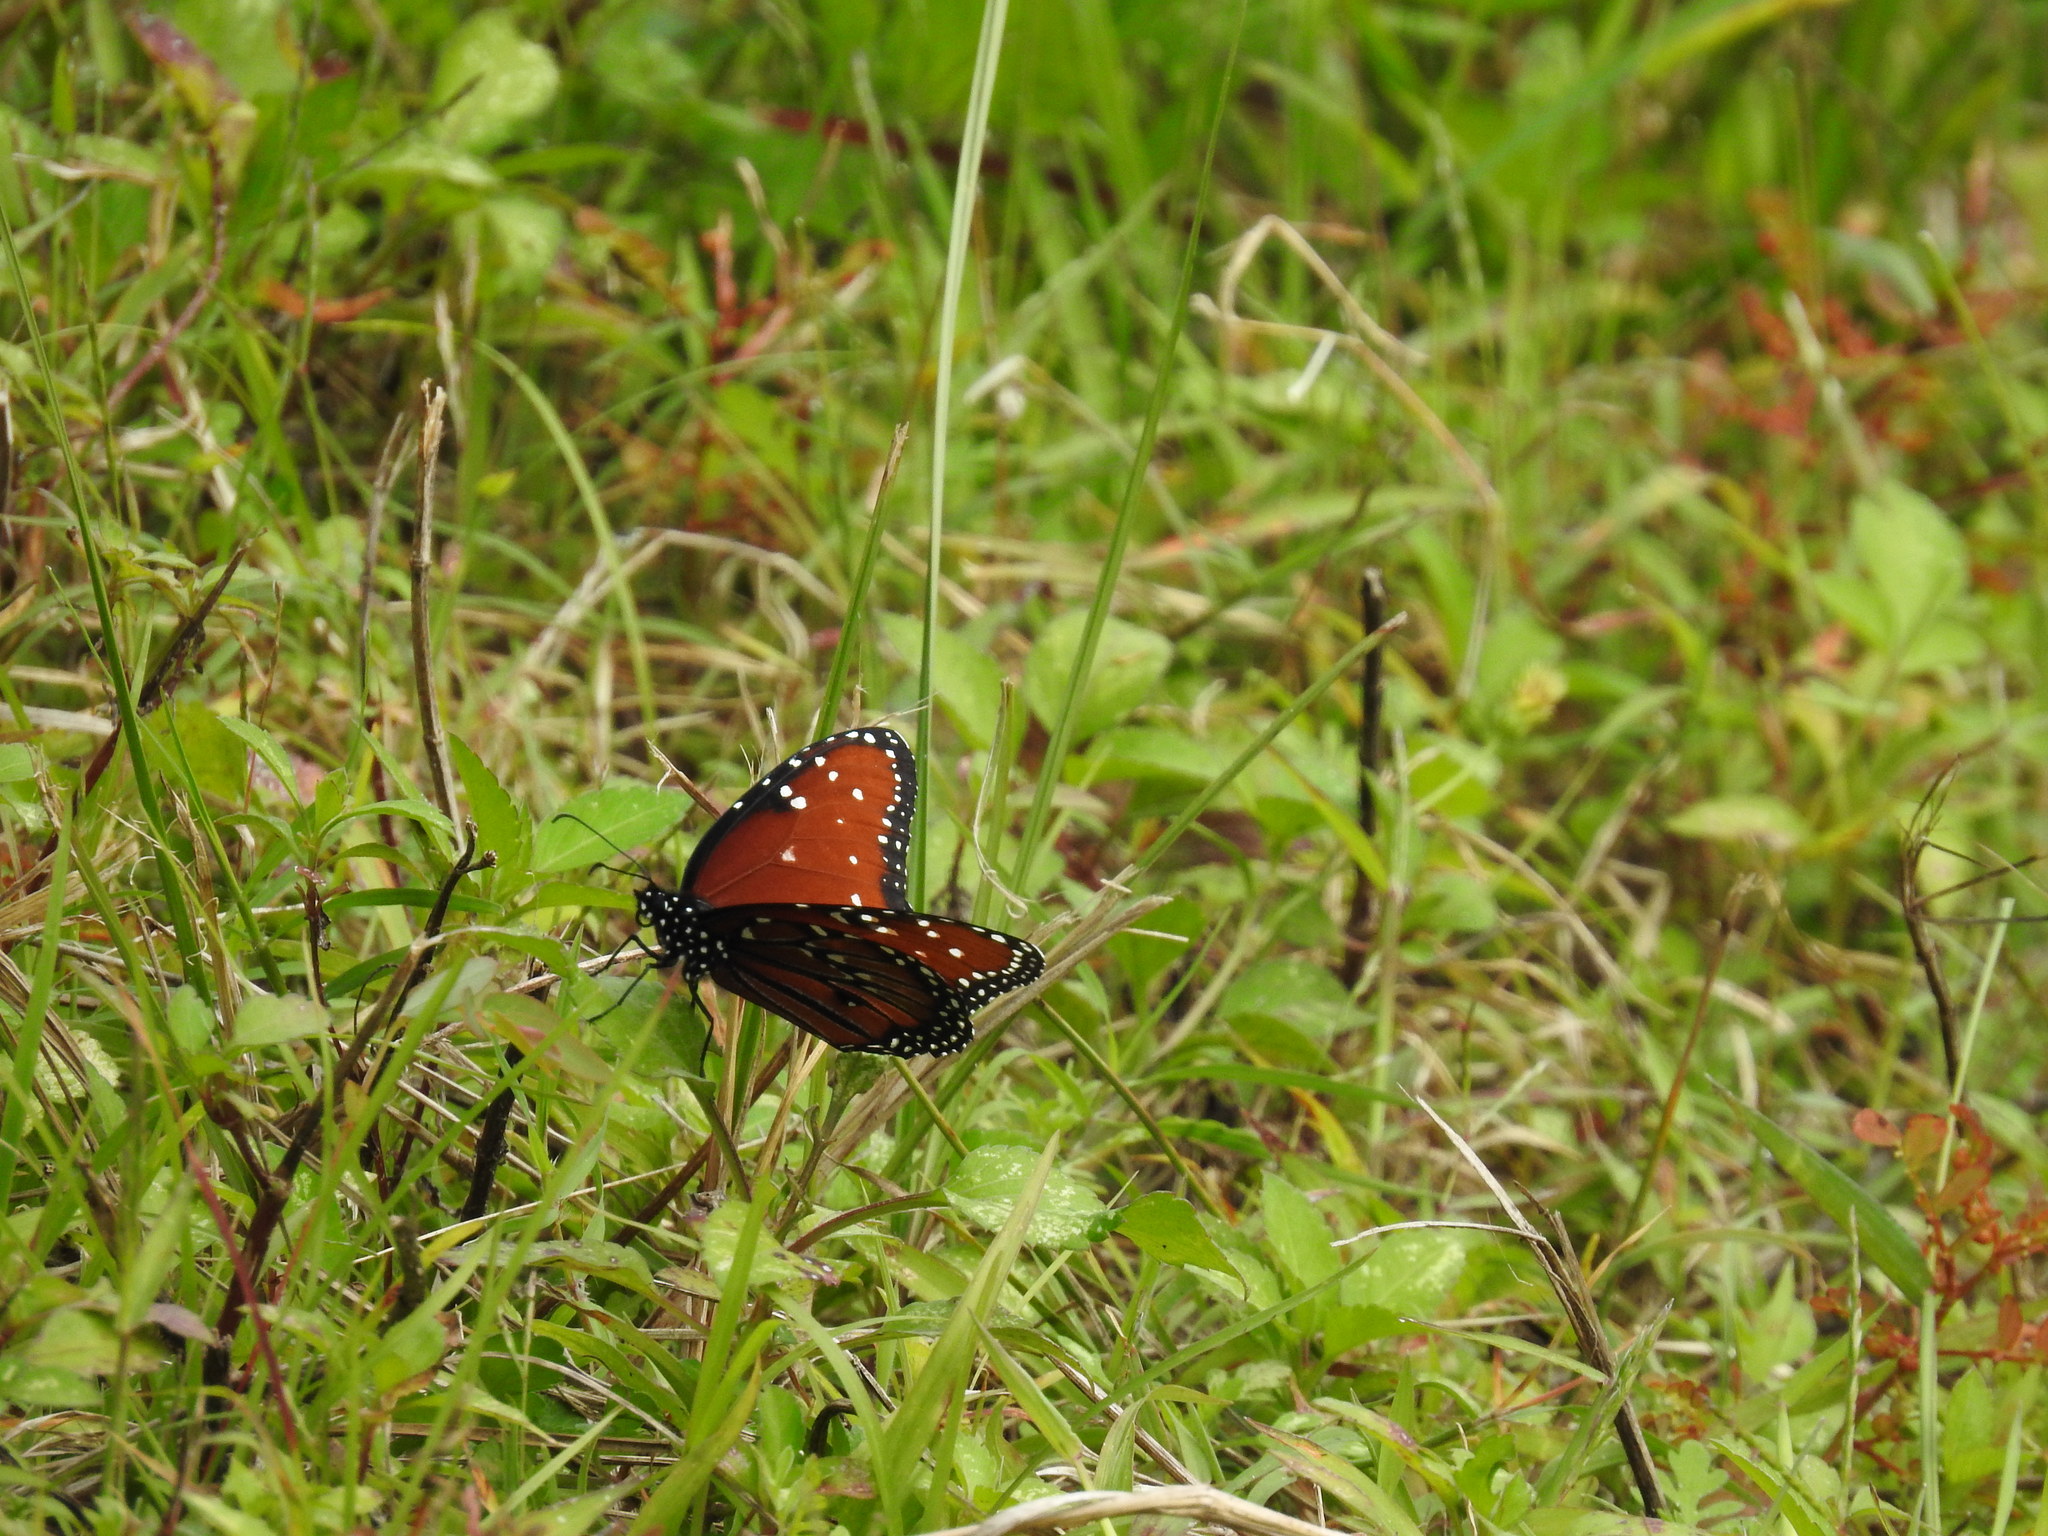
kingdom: Animalia
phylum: Arthropoda
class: Insecta
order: Lepidoptera
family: Nymphalidae
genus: Danaus
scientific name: Danaus gilippus
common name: Queen
